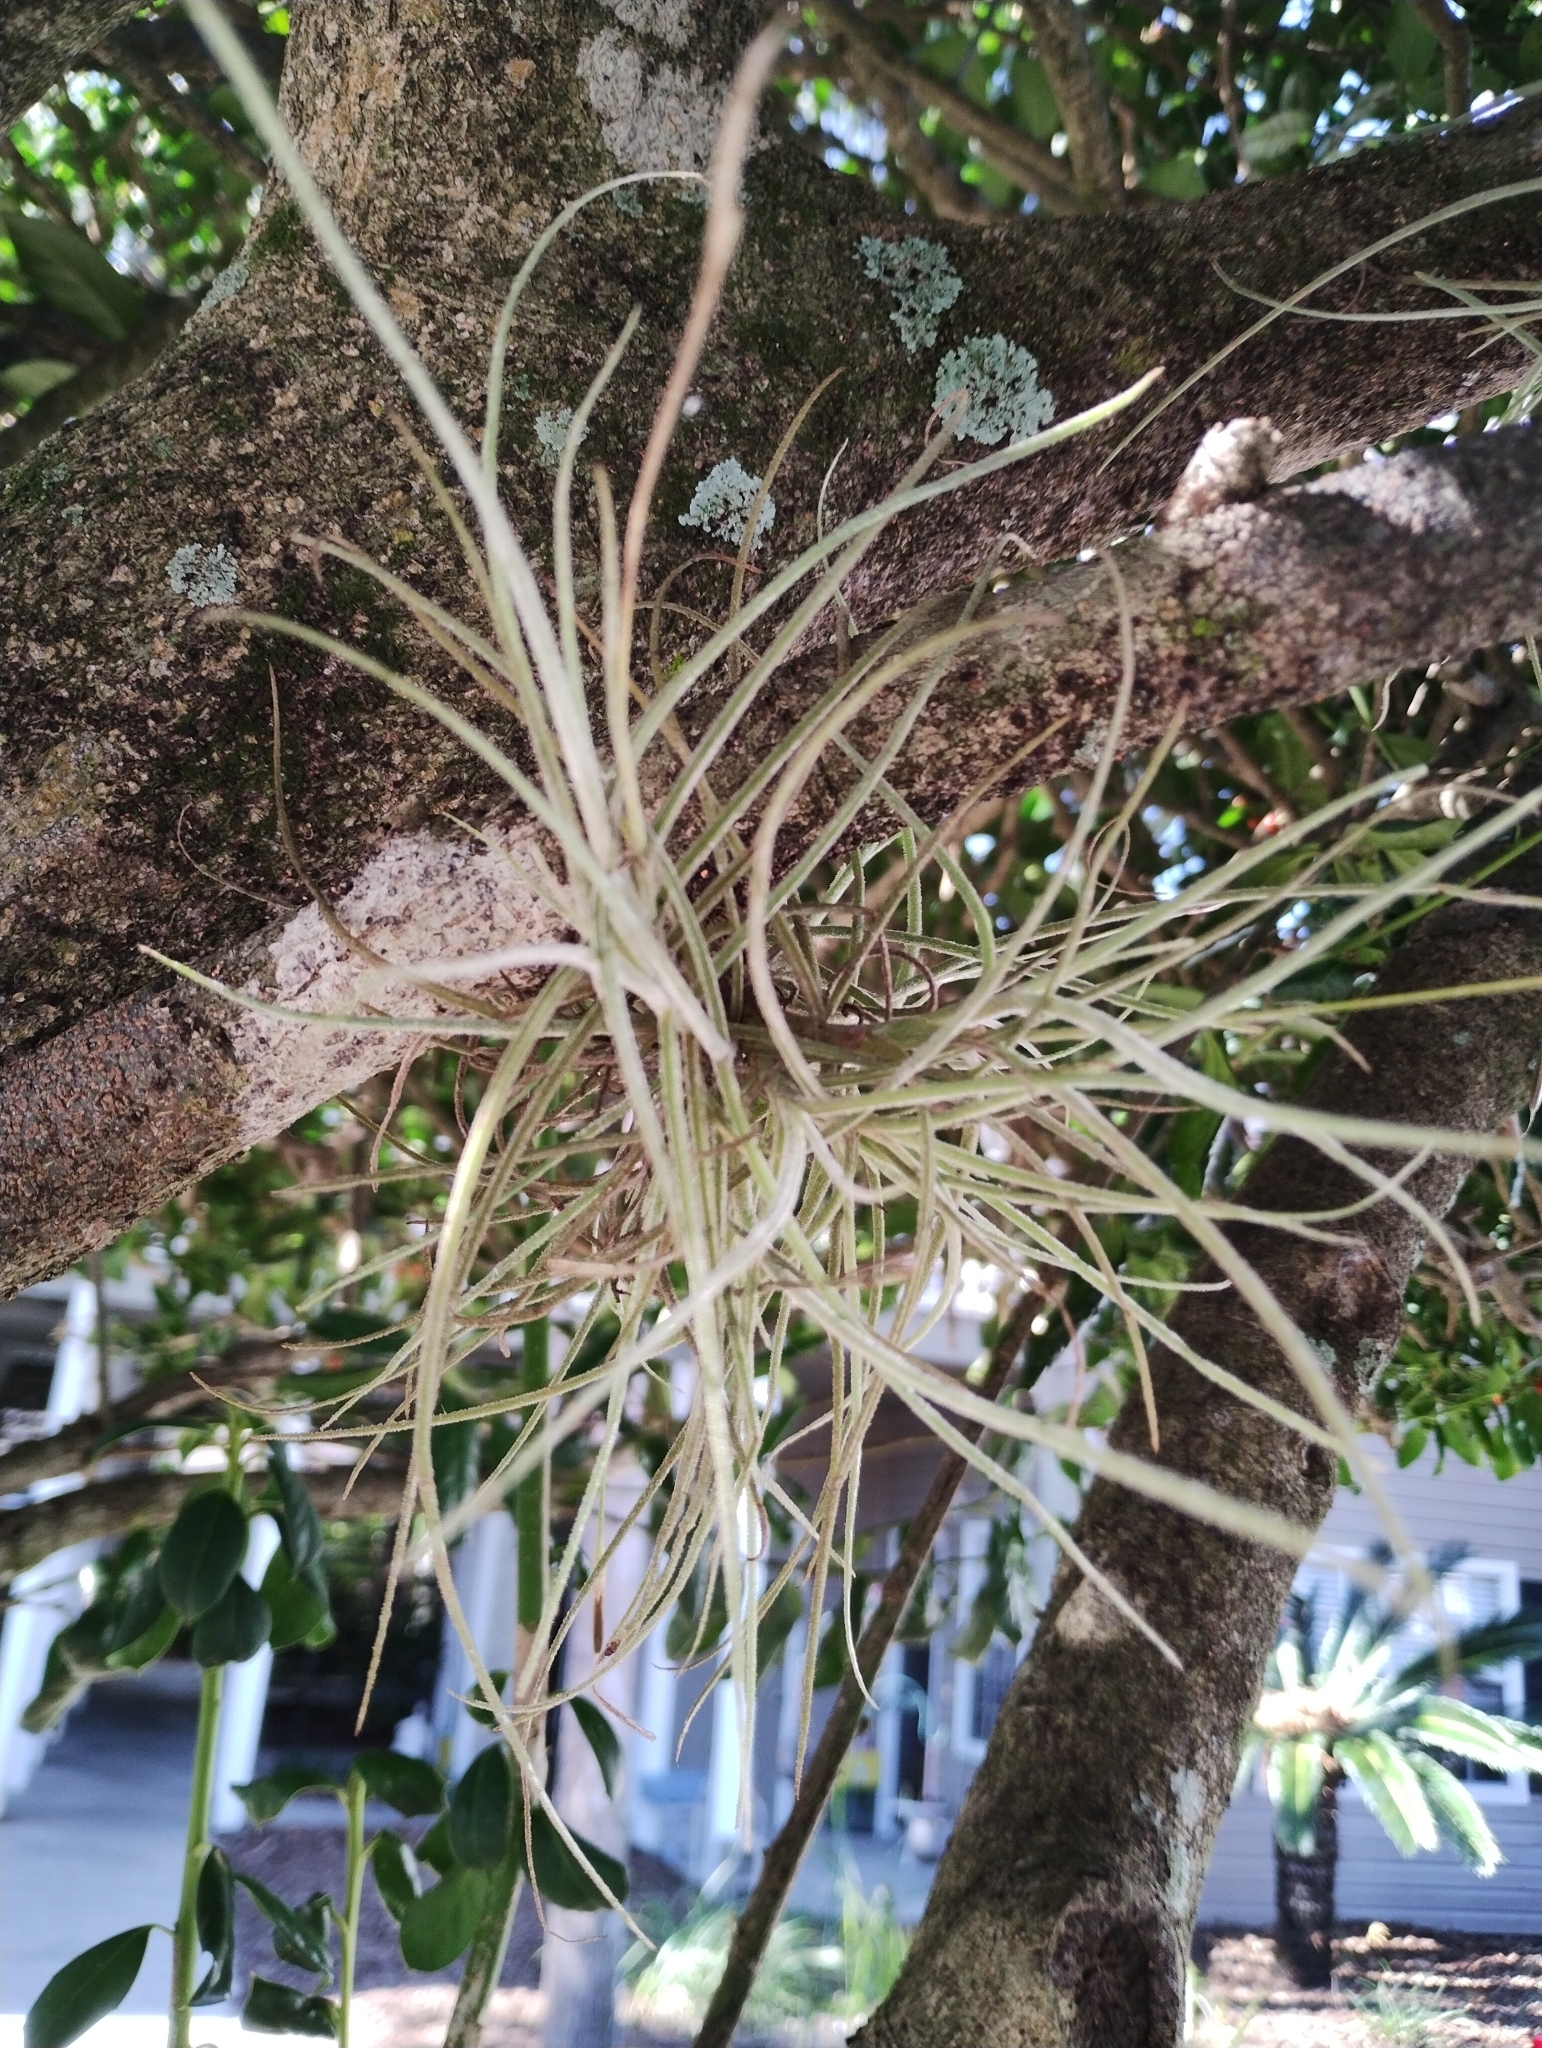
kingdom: Plantae
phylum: Tracheophyta
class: Liliopsida
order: Poales
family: Bromeliaceae
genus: Tillandsia
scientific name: Tillandsia recurvata
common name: Small ballmoss
